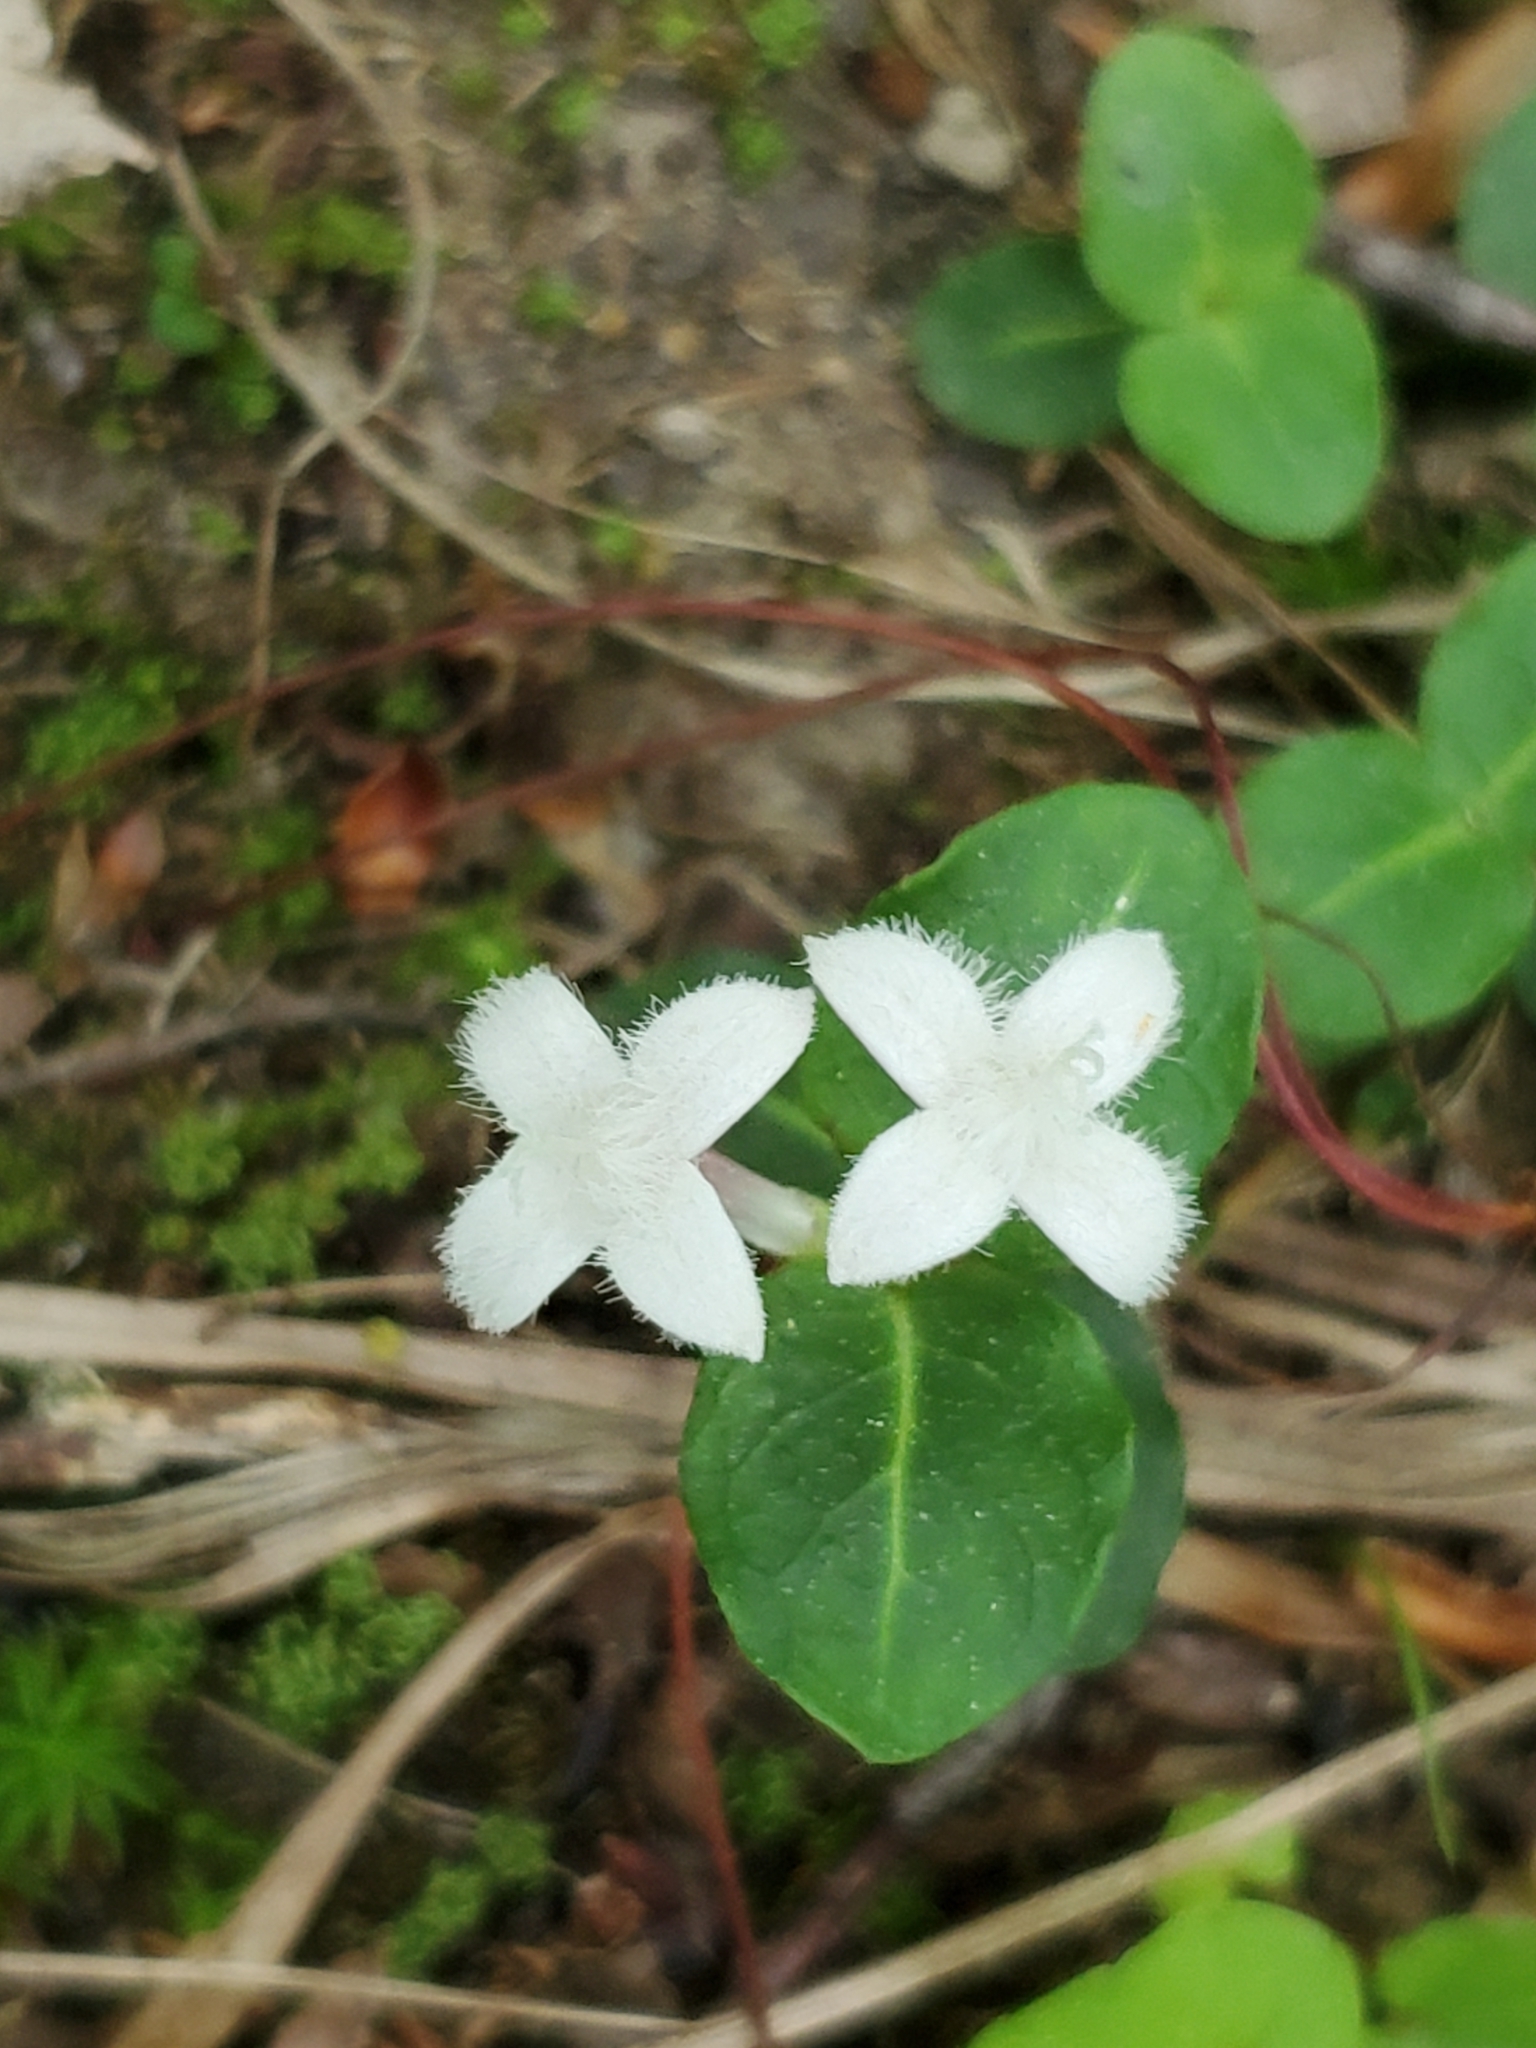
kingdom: Plantae
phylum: Tracheophyta
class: Magnoliopsida
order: Gentianales
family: Rubiaceae
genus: Mitchella
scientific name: Mitchella repens
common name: Partridge-berry
